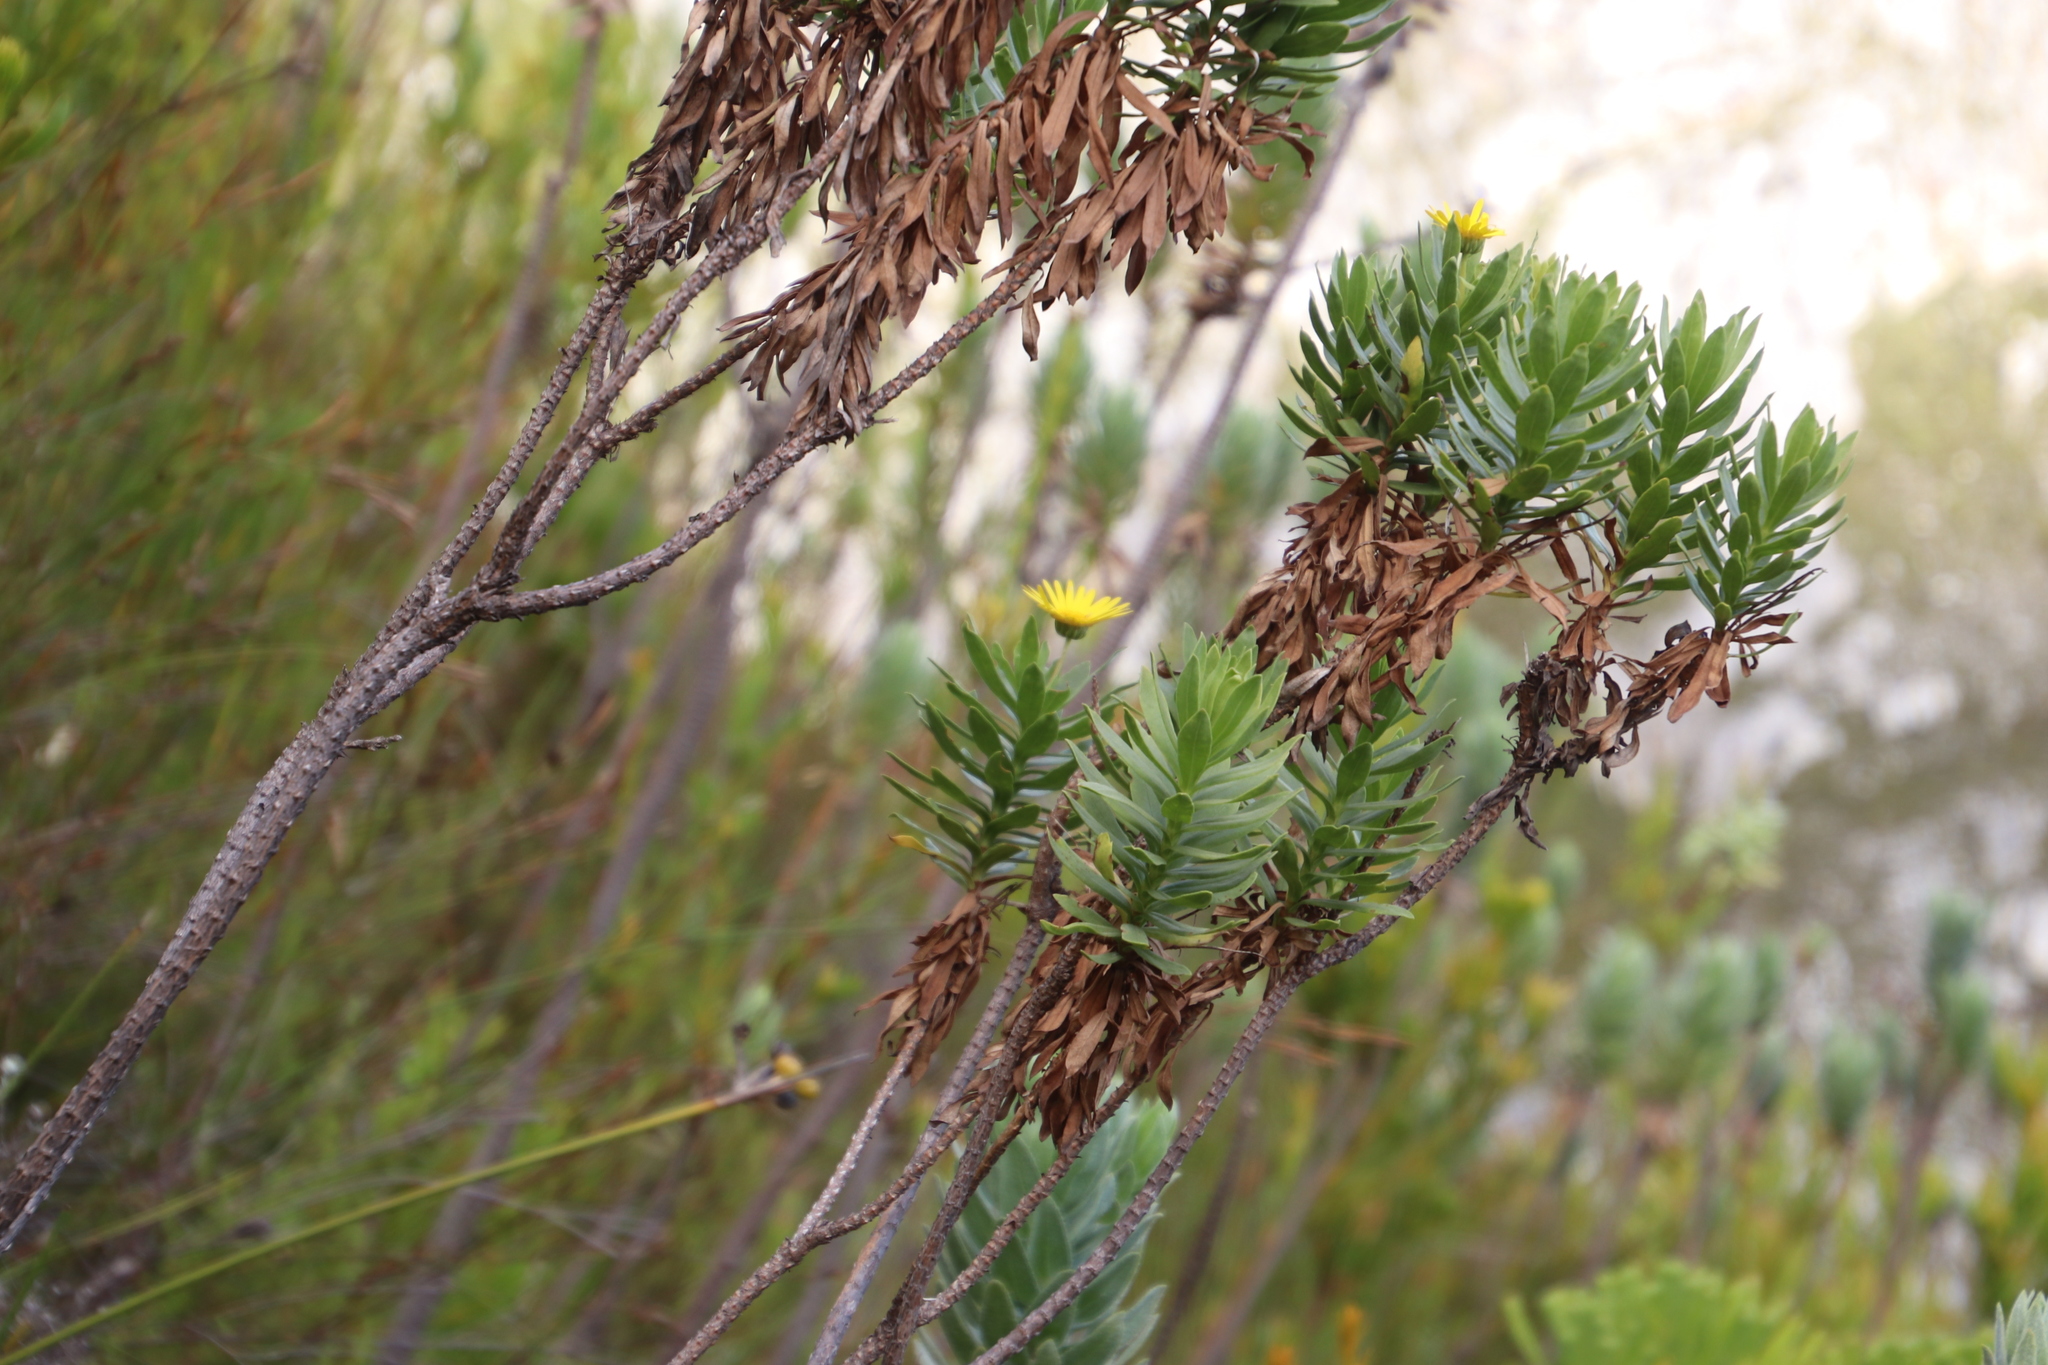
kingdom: Plantae
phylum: Tracheophyta
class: Magnoliopsida
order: Asterales
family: Asteraceae
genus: Ursinia
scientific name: Ursinia eckloniana
